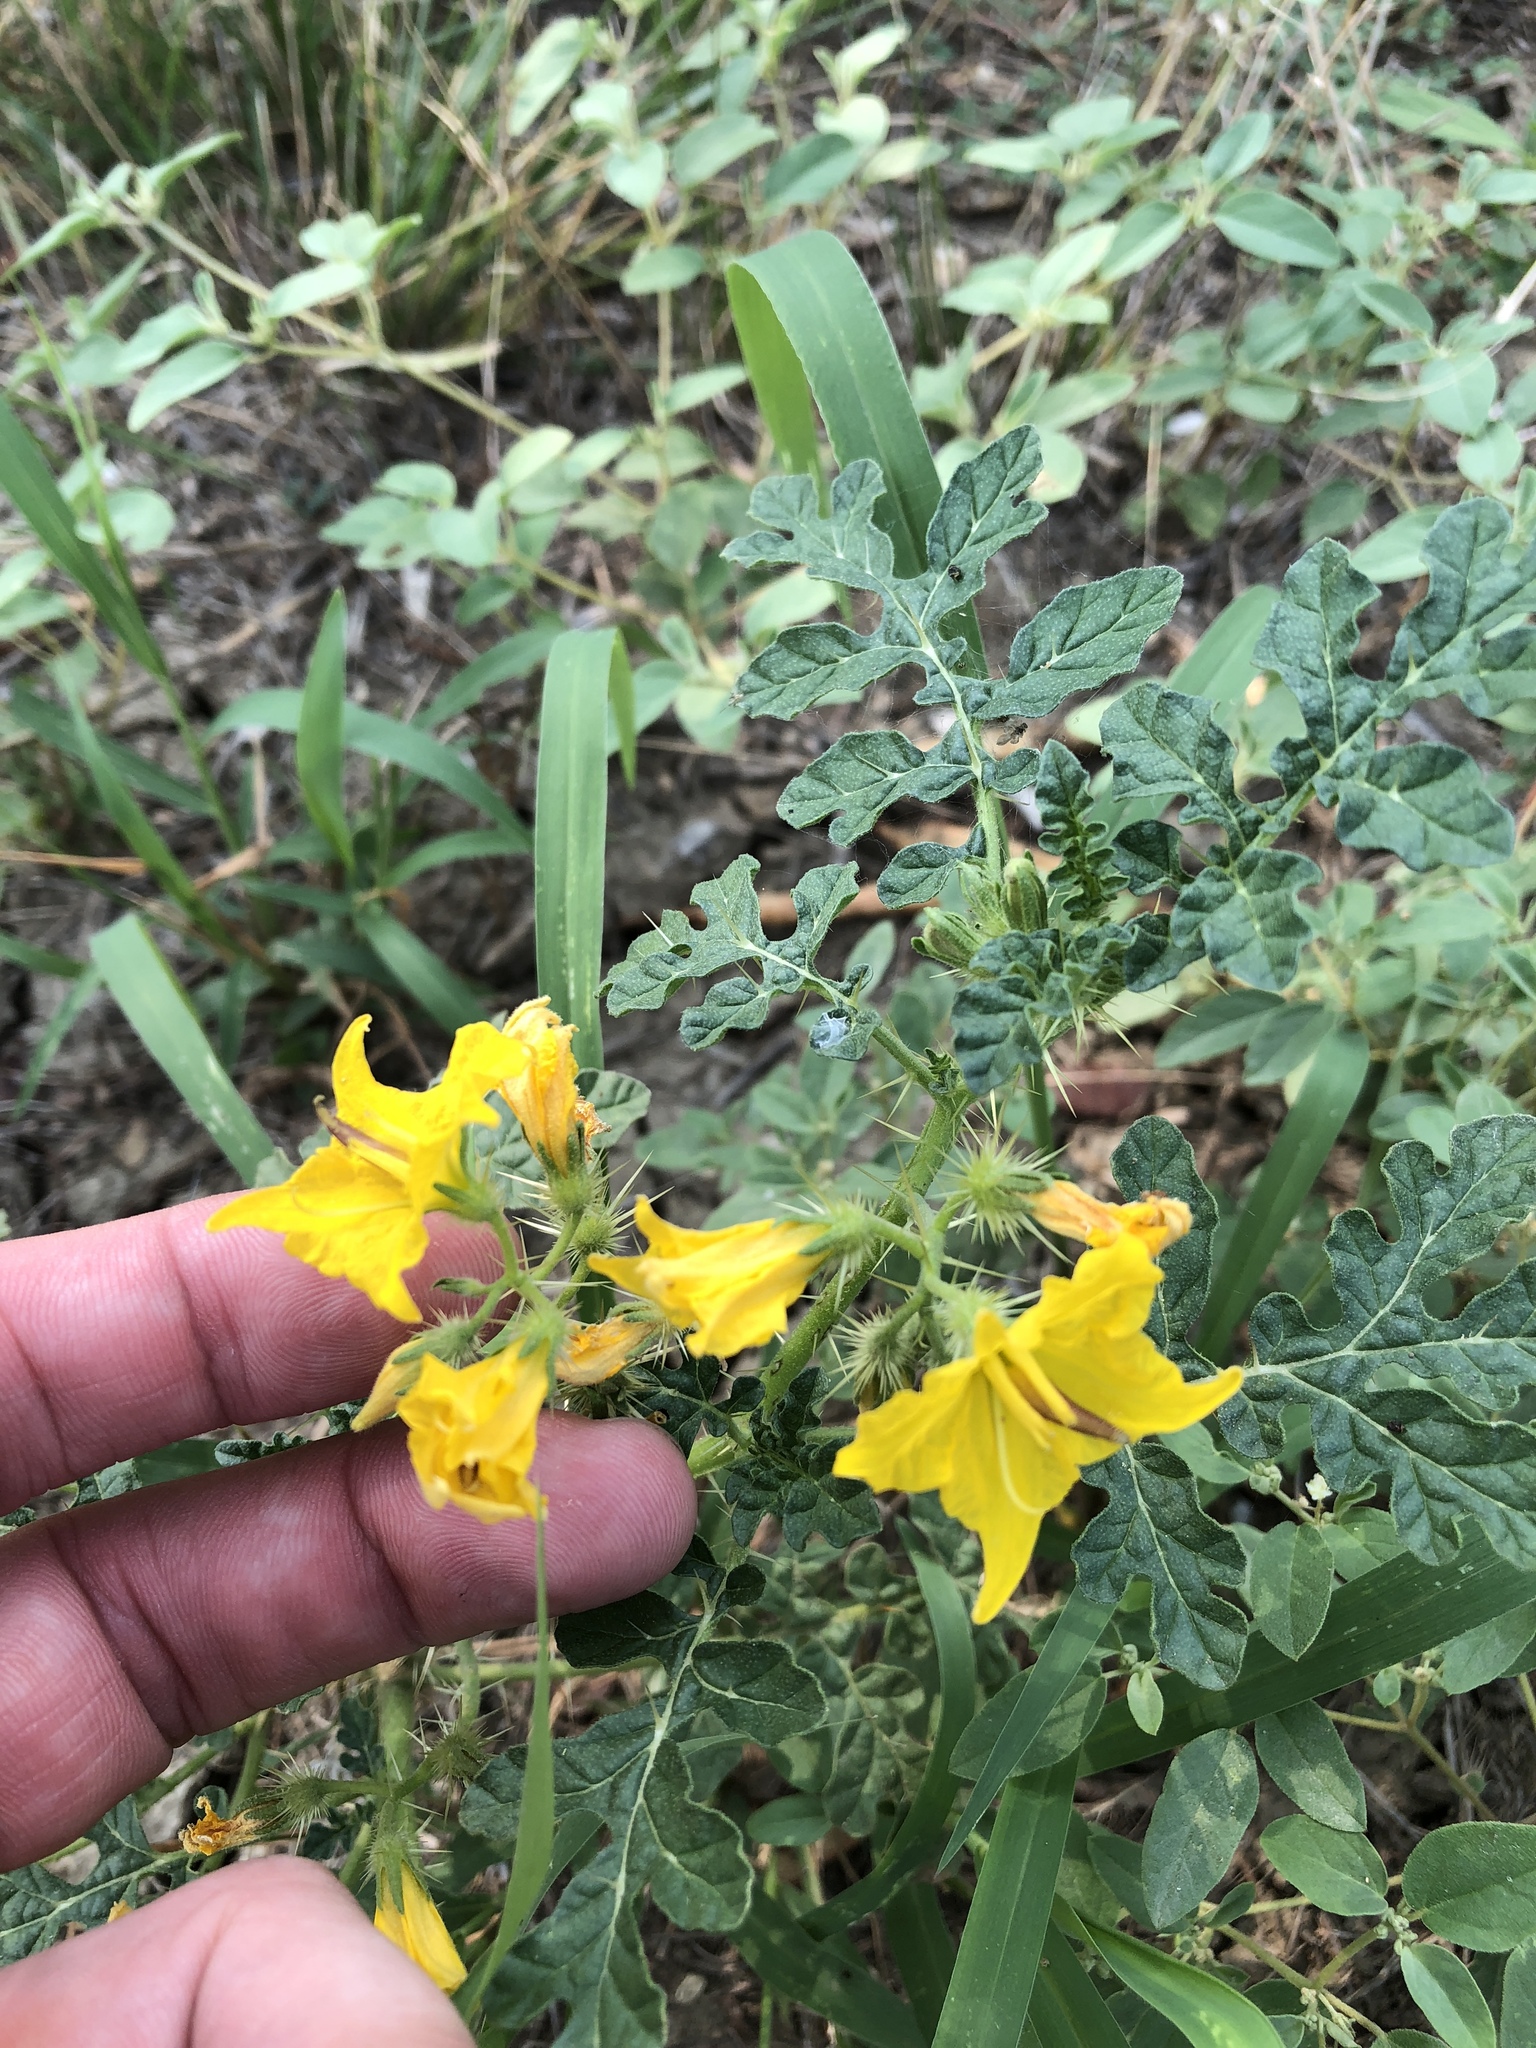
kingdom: Plantae
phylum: Tracheophyta
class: Magnoliopsida
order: Solanales
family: Solanaceae
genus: Solanum
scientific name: Solanum angustifolium
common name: Buffalobur nightshade
